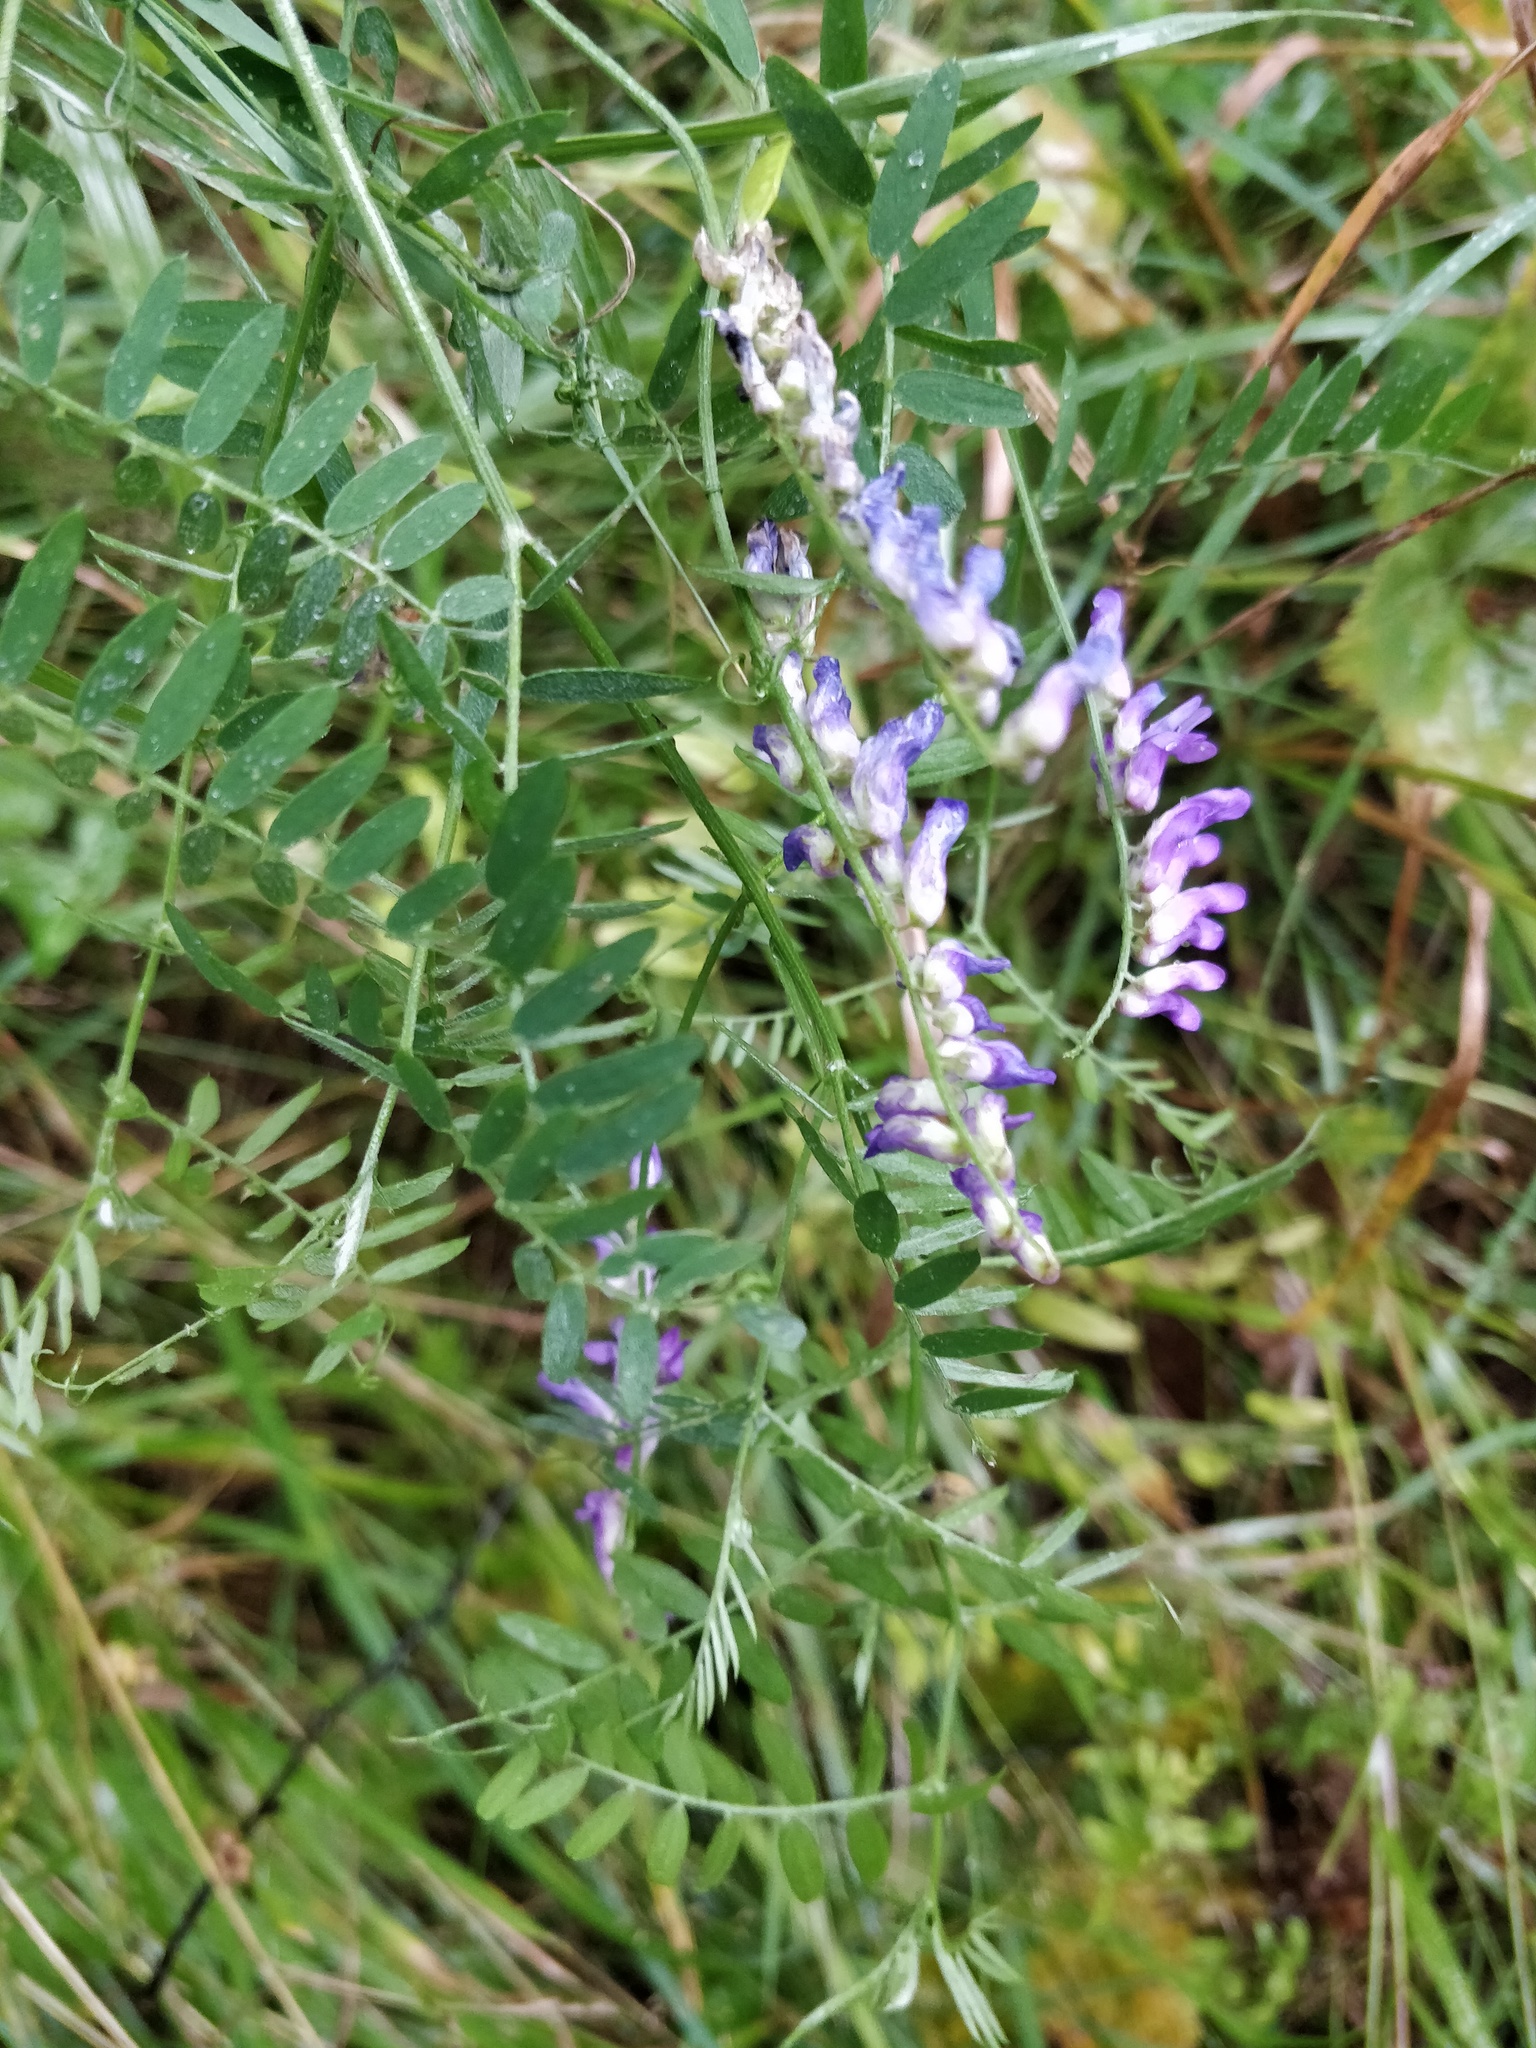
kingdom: Plantae
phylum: Tracheophyta
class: Magnoliopsida
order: Fabales
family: Fabaceae
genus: Vicia
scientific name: Vicia cracca
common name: Bird vetch
